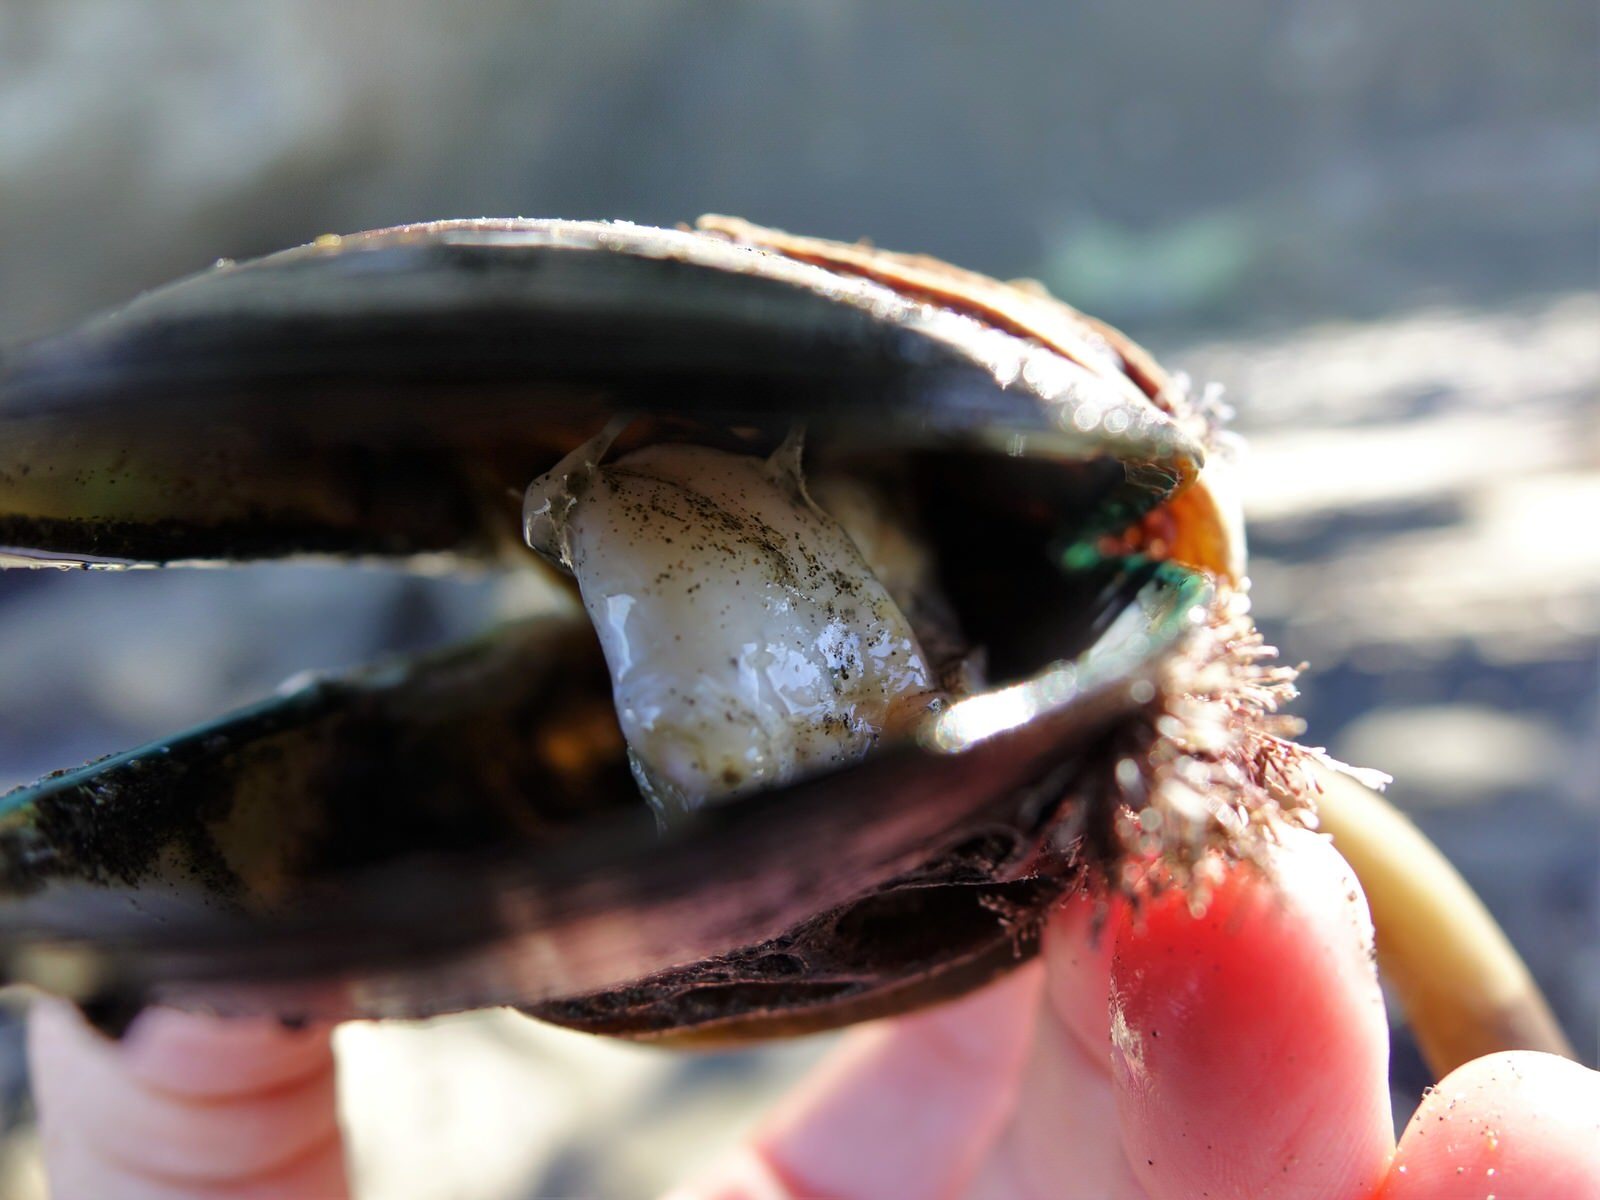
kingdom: Animalia
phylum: Mollusca
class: Bivalvia
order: Mytilida
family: Mytilidae
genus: Perna
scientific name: Perna canaliculus
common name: New zealand greenshelltm
